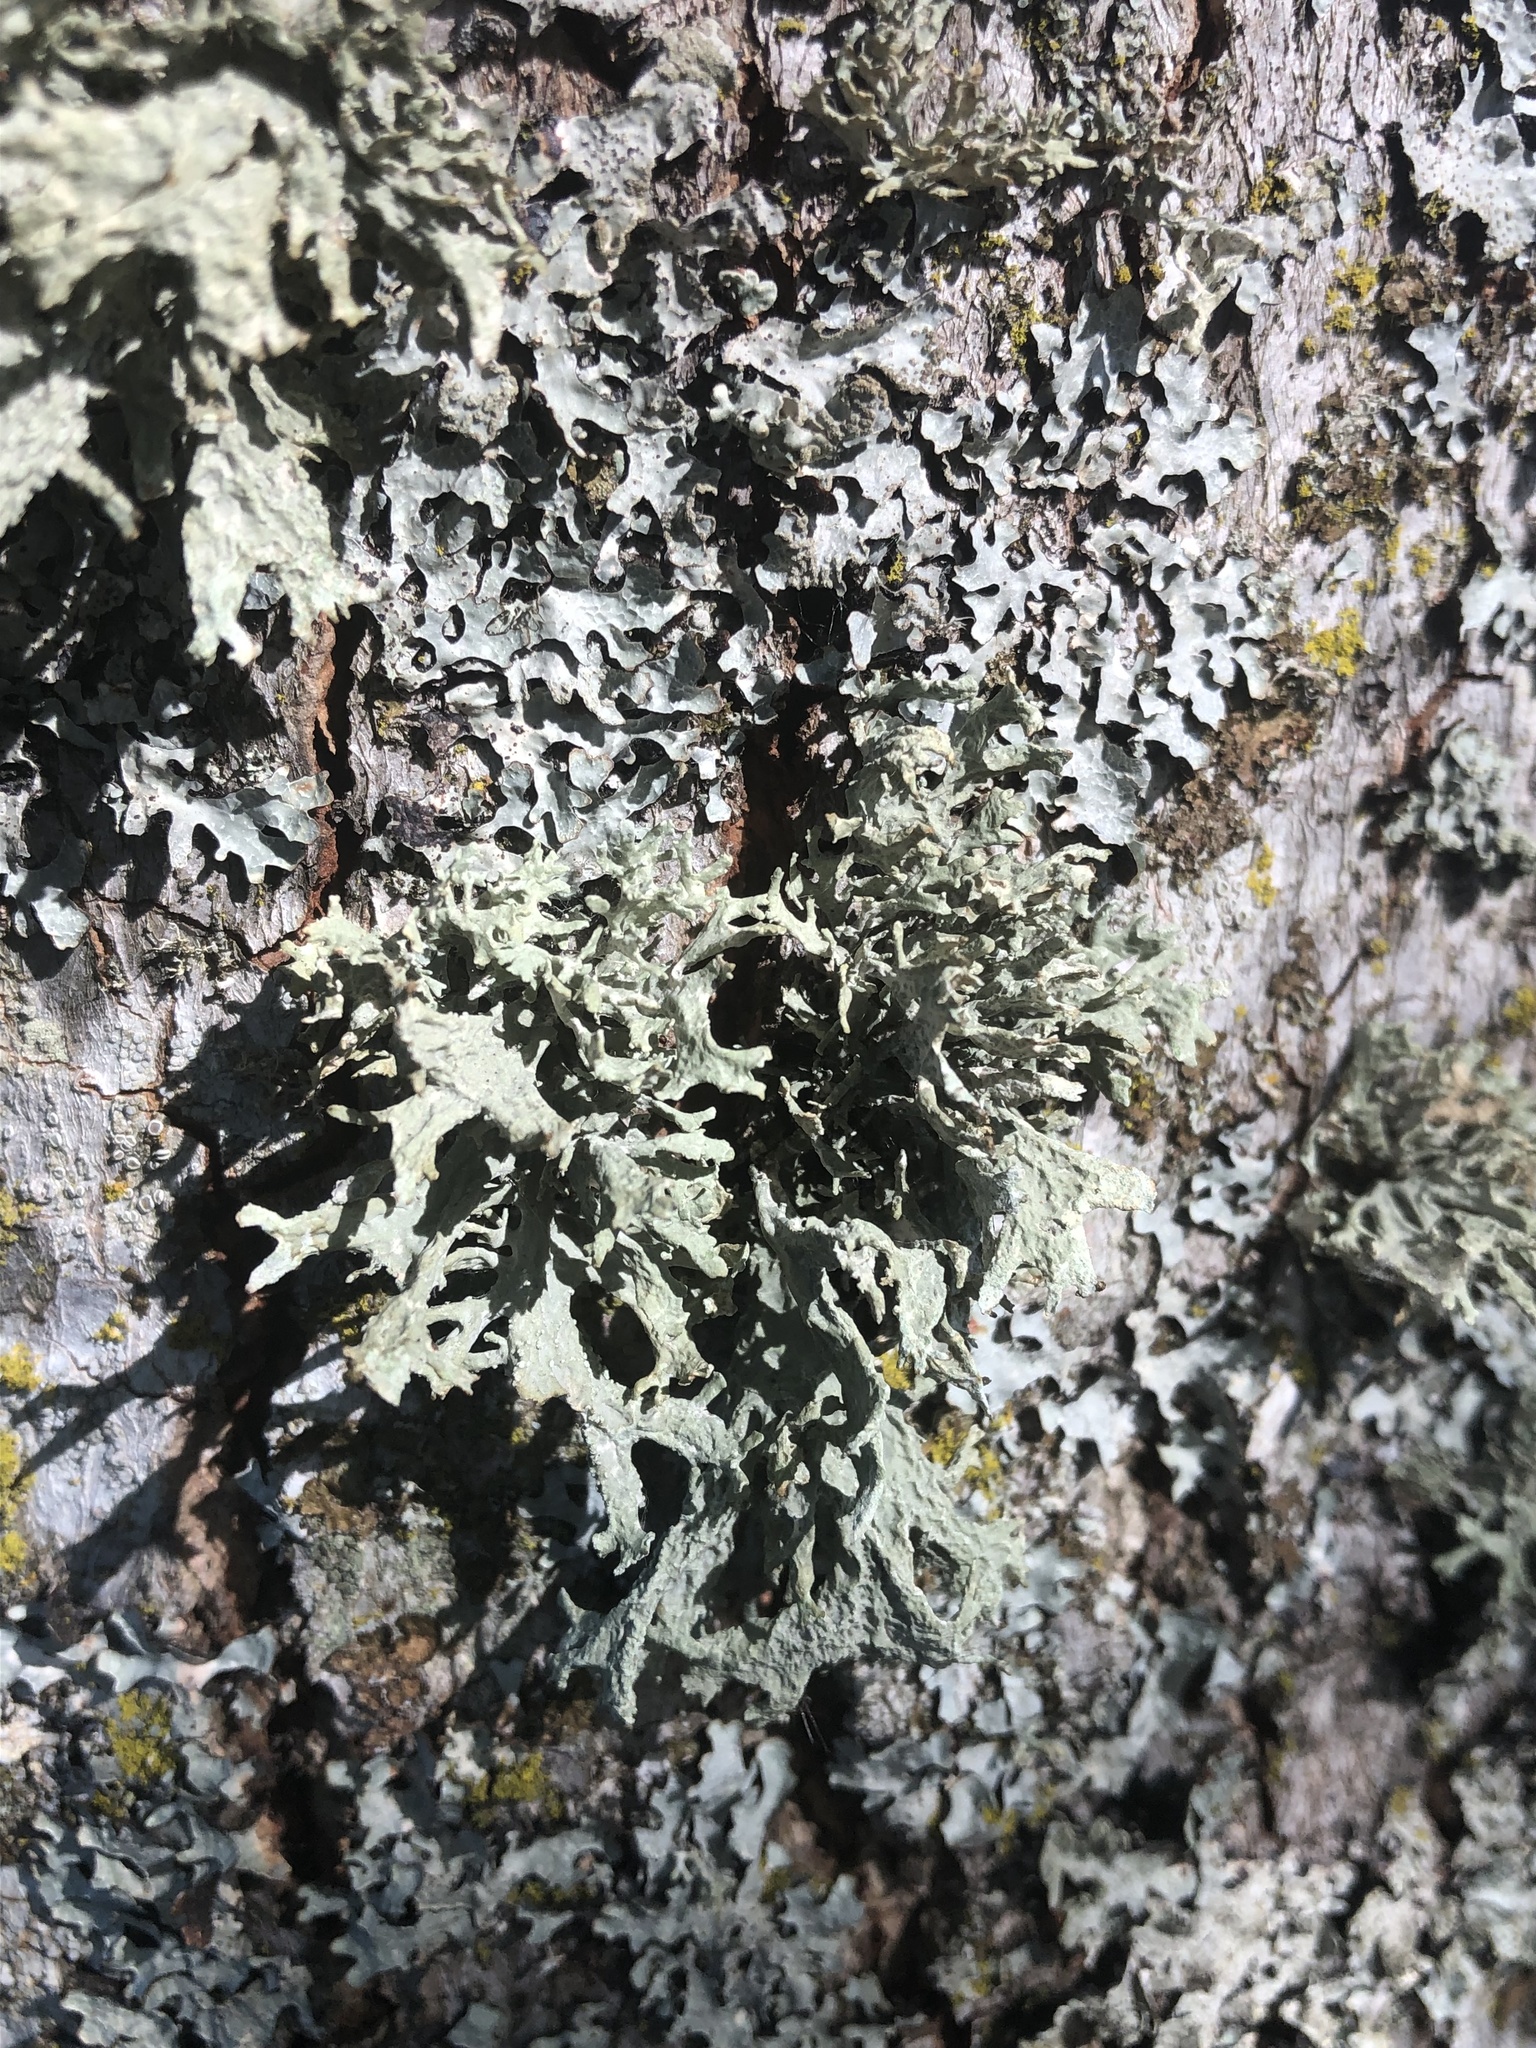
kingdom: Fungi
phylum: Ascomycota
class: Lecanoromycetes
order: Lecanorales
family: Parmeliaceae
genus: Evernia
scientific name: Evernia prunastri
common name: Oak moss
